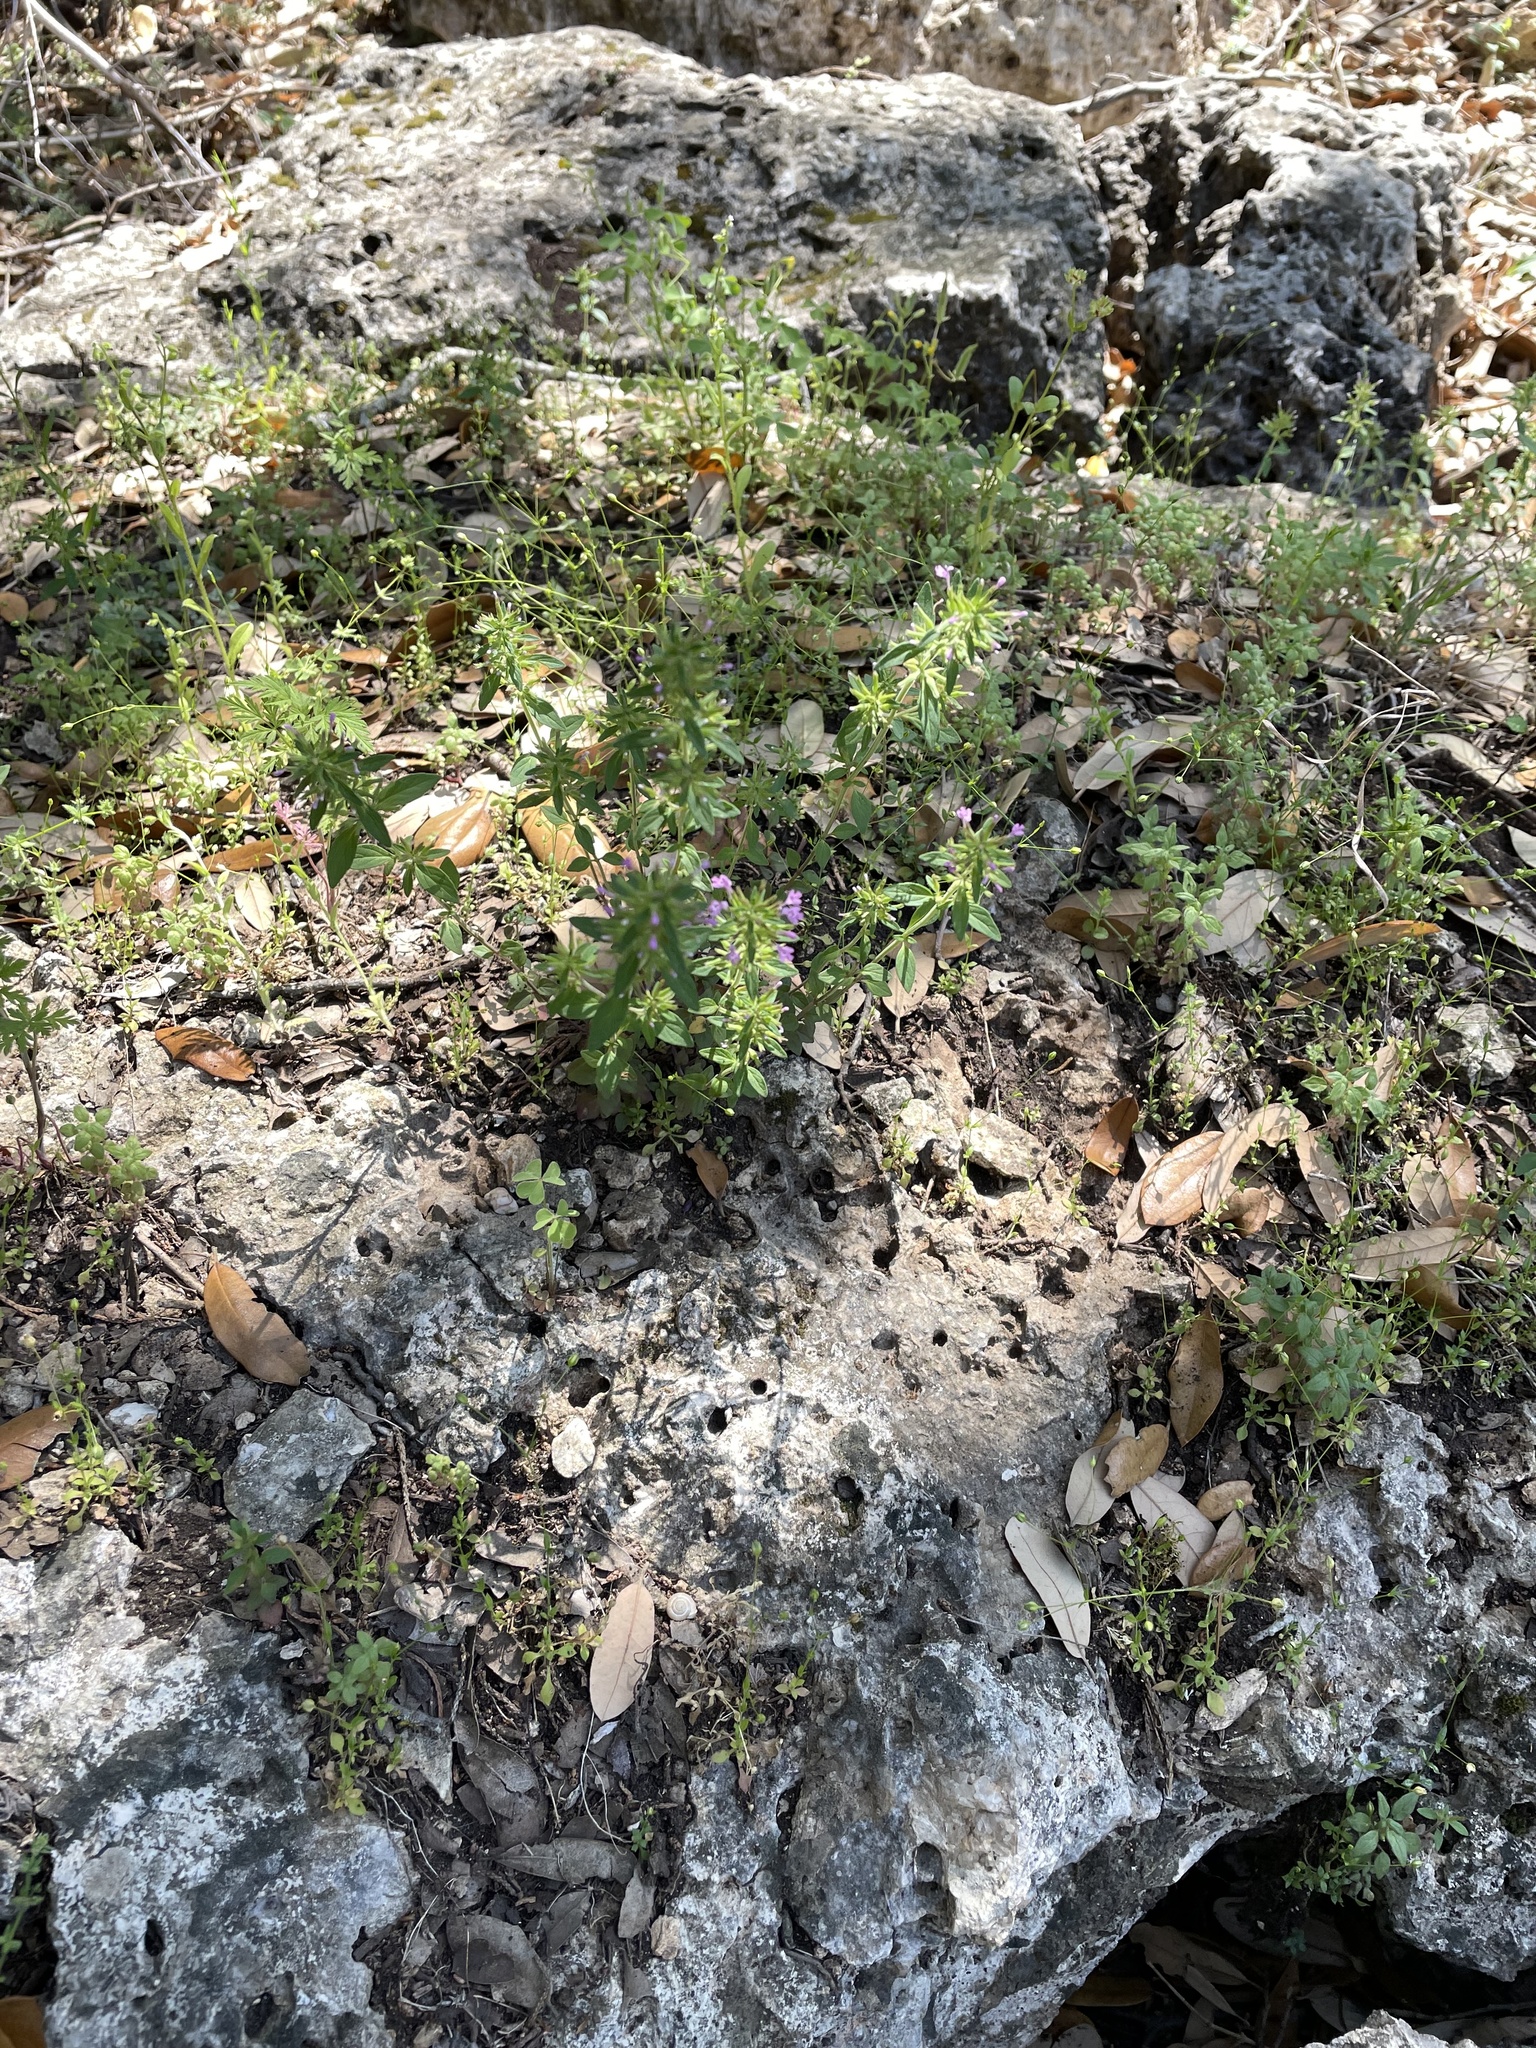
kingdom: Plantae
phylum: Tracheophyta
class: Magnoliopsida
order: Lamiales
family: Lamiaceae
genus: Hedeoma
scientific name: Hedeoma acinoides
